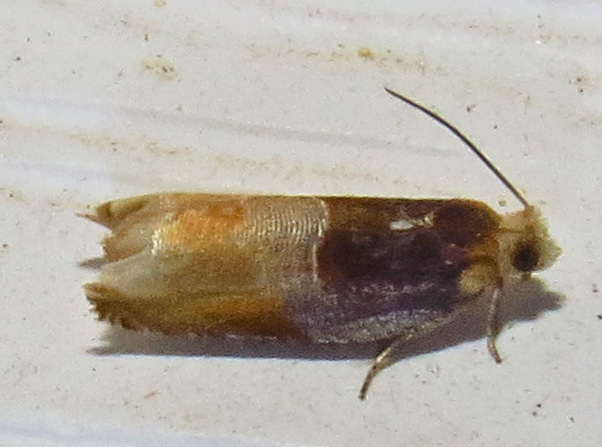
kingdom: Animalia
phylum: Arthropoda
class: Insecta
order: Lepidoptera
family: Tortricidae
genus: Ancylis
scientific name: Ancylis divisana
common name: Two-toned ancylis moth
